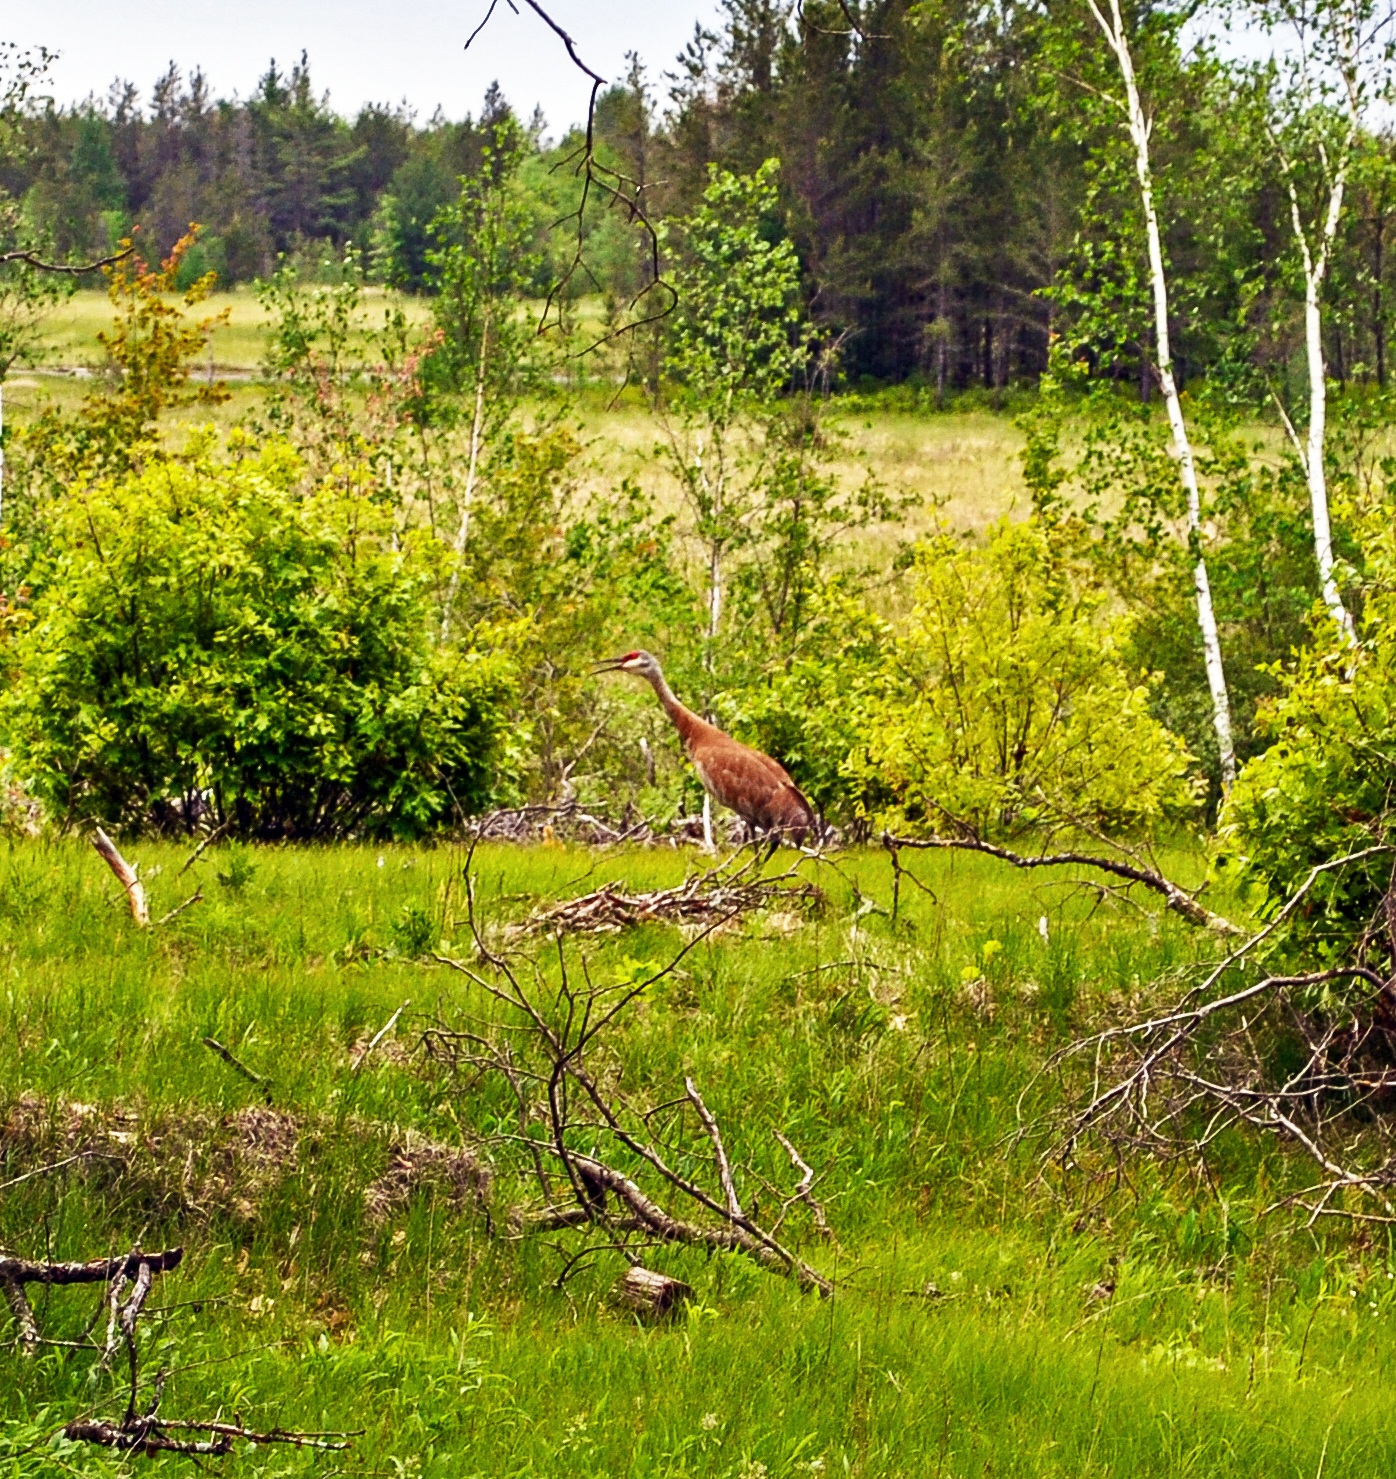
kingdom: Animalia
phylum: Chordata
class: Aves
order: Gruiformes
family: Gruidae
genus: Grus
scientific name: Grus canadensis
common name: Sandhill crane
